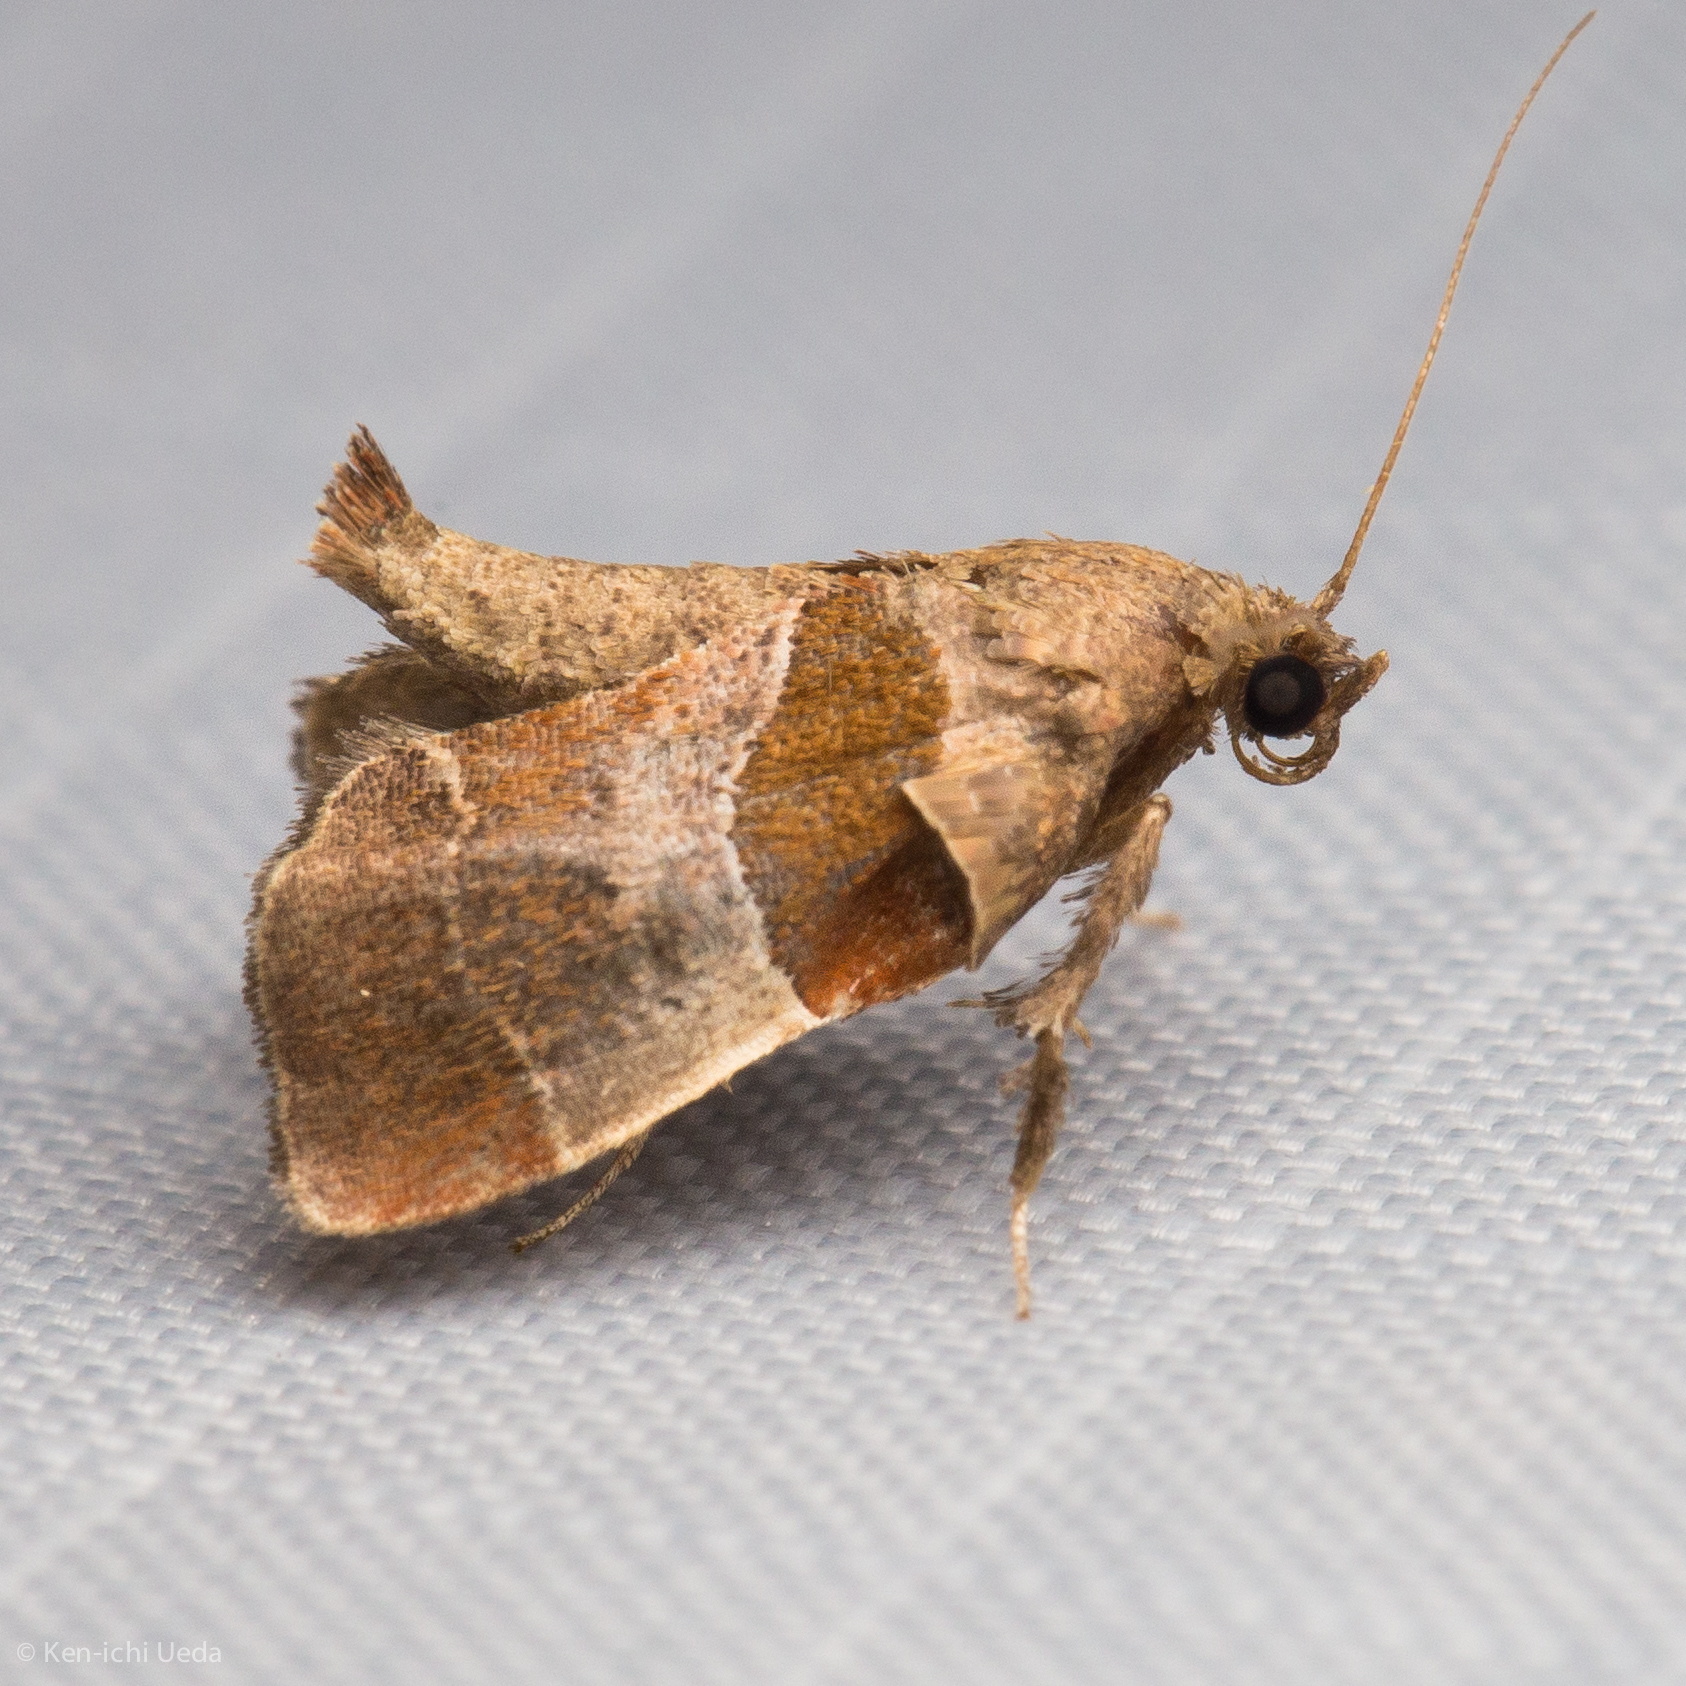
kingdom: Animalia
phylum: Arthropoda
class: Insecta
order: Lepidoptera
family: Pyralidae
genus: Tosale
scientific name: Tosale oviplagalis
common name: Dimorphic tosale moth
